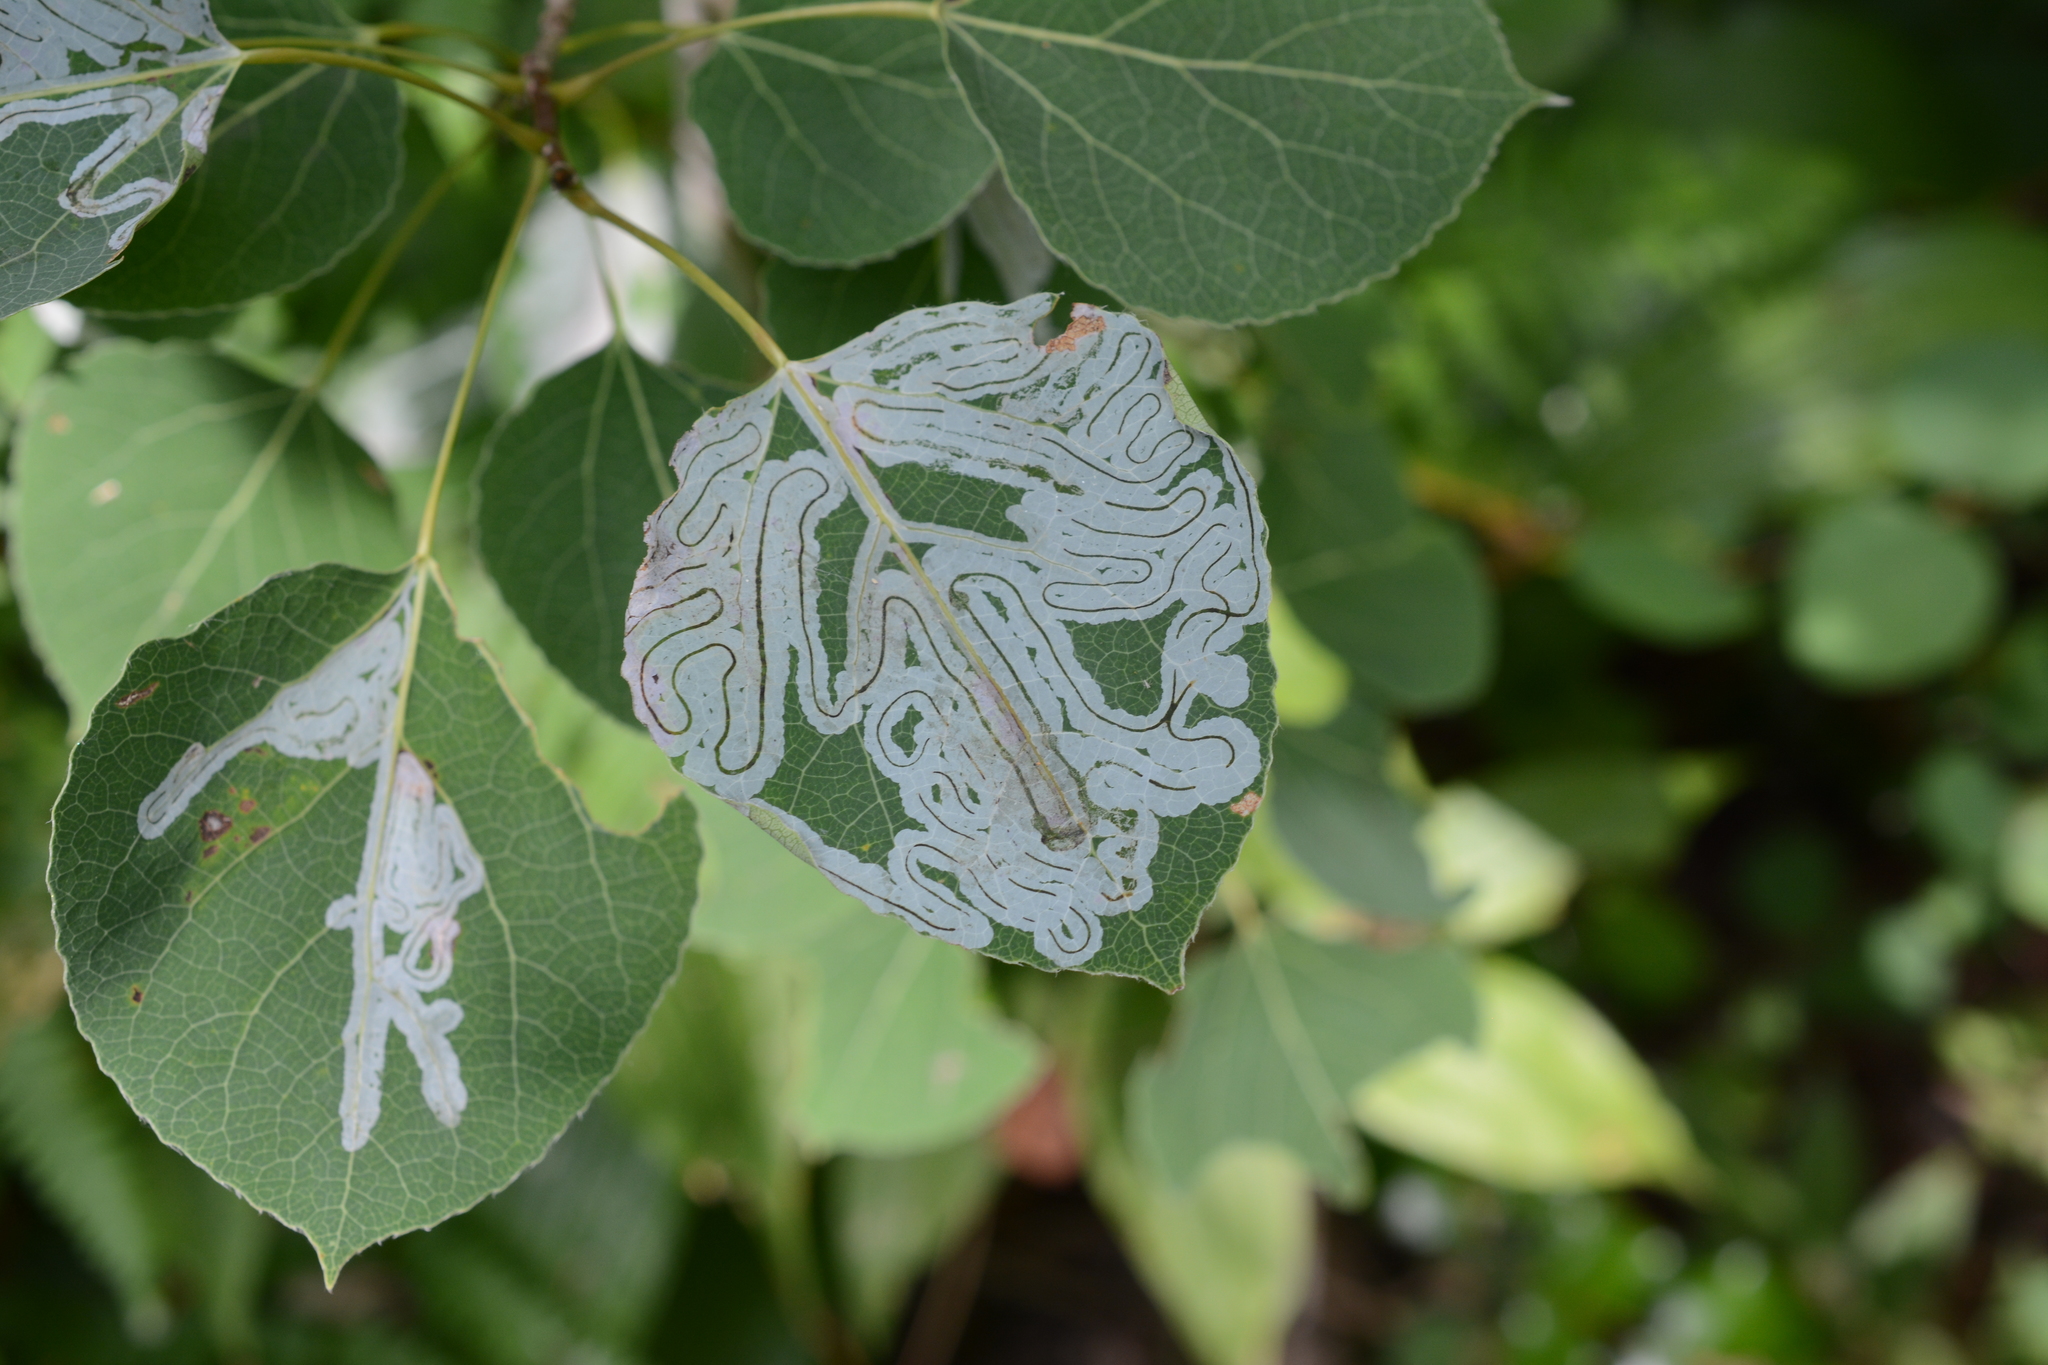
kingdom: Animalia
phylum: Arthropoda
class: Insecta
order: Lepidoptera
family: Gracillariidae
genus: Phyllocnistis
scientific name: Phyllocnistis populiella
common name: Aspen serpentine leafminer moth
